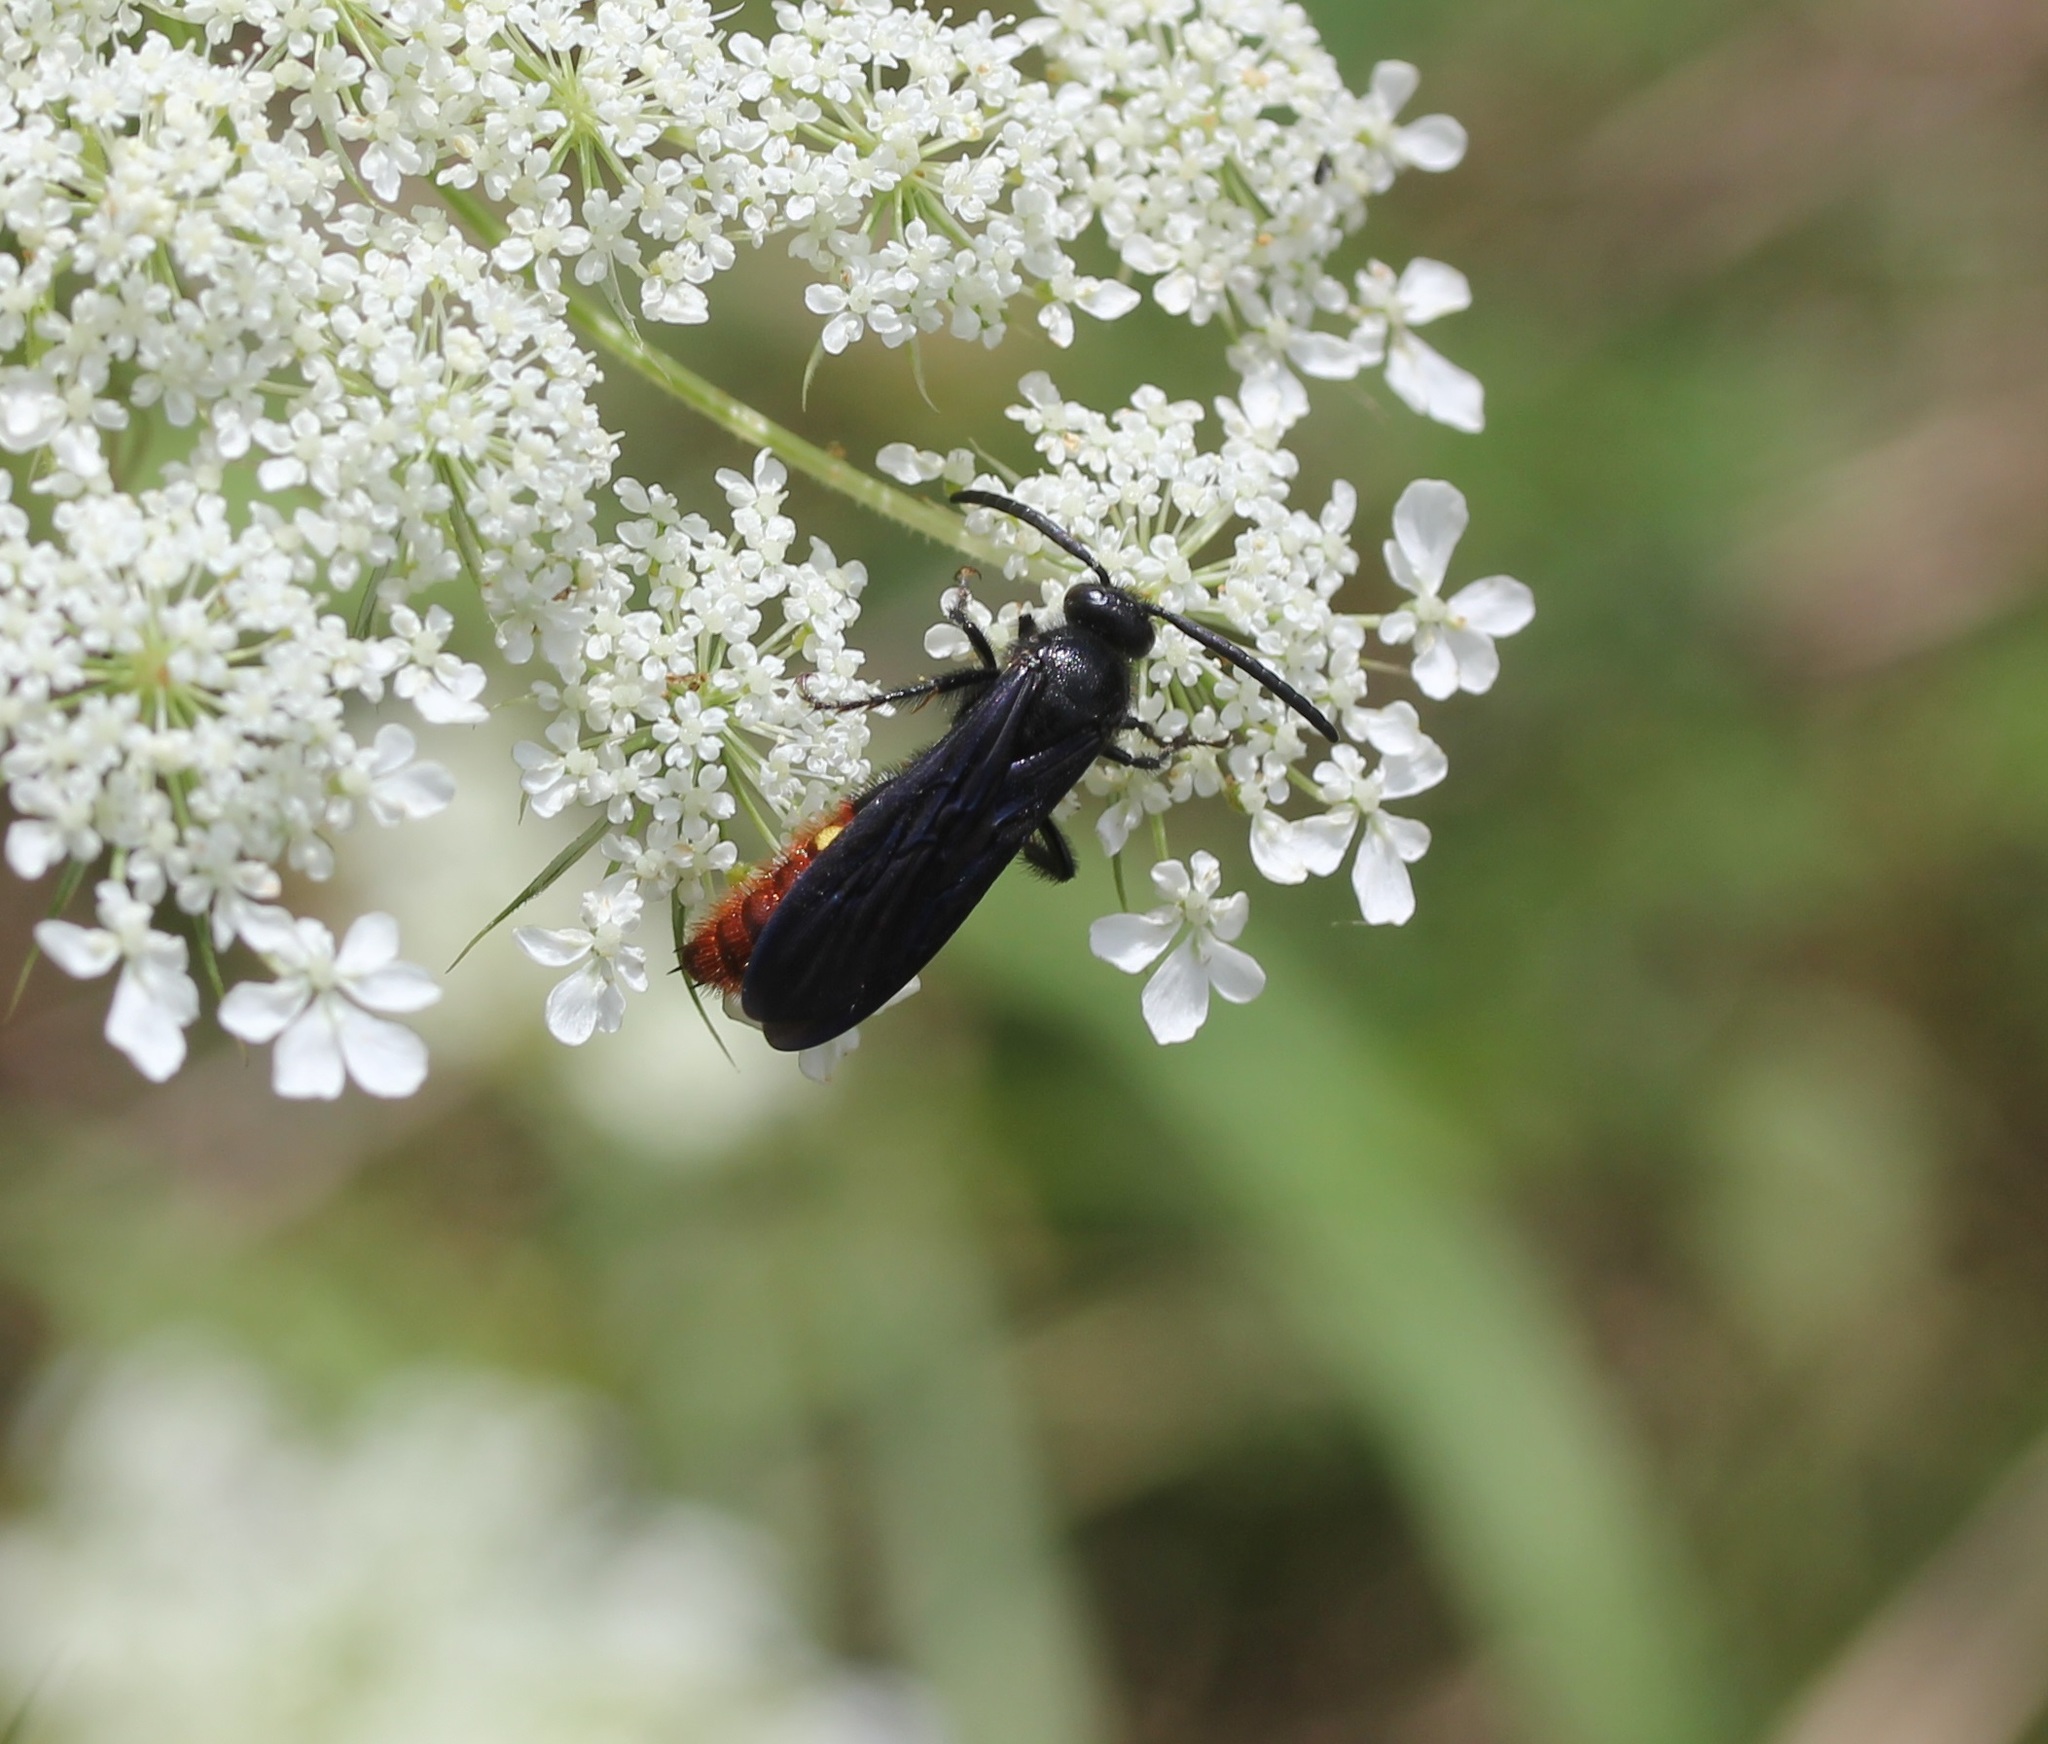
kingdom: Animalia
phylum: Arthropoda
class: Insecta
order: Hymenoptera
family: Scoliidae
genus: Scolia
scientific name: Scolia dubia
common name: Blue-winged scoliid wasp
